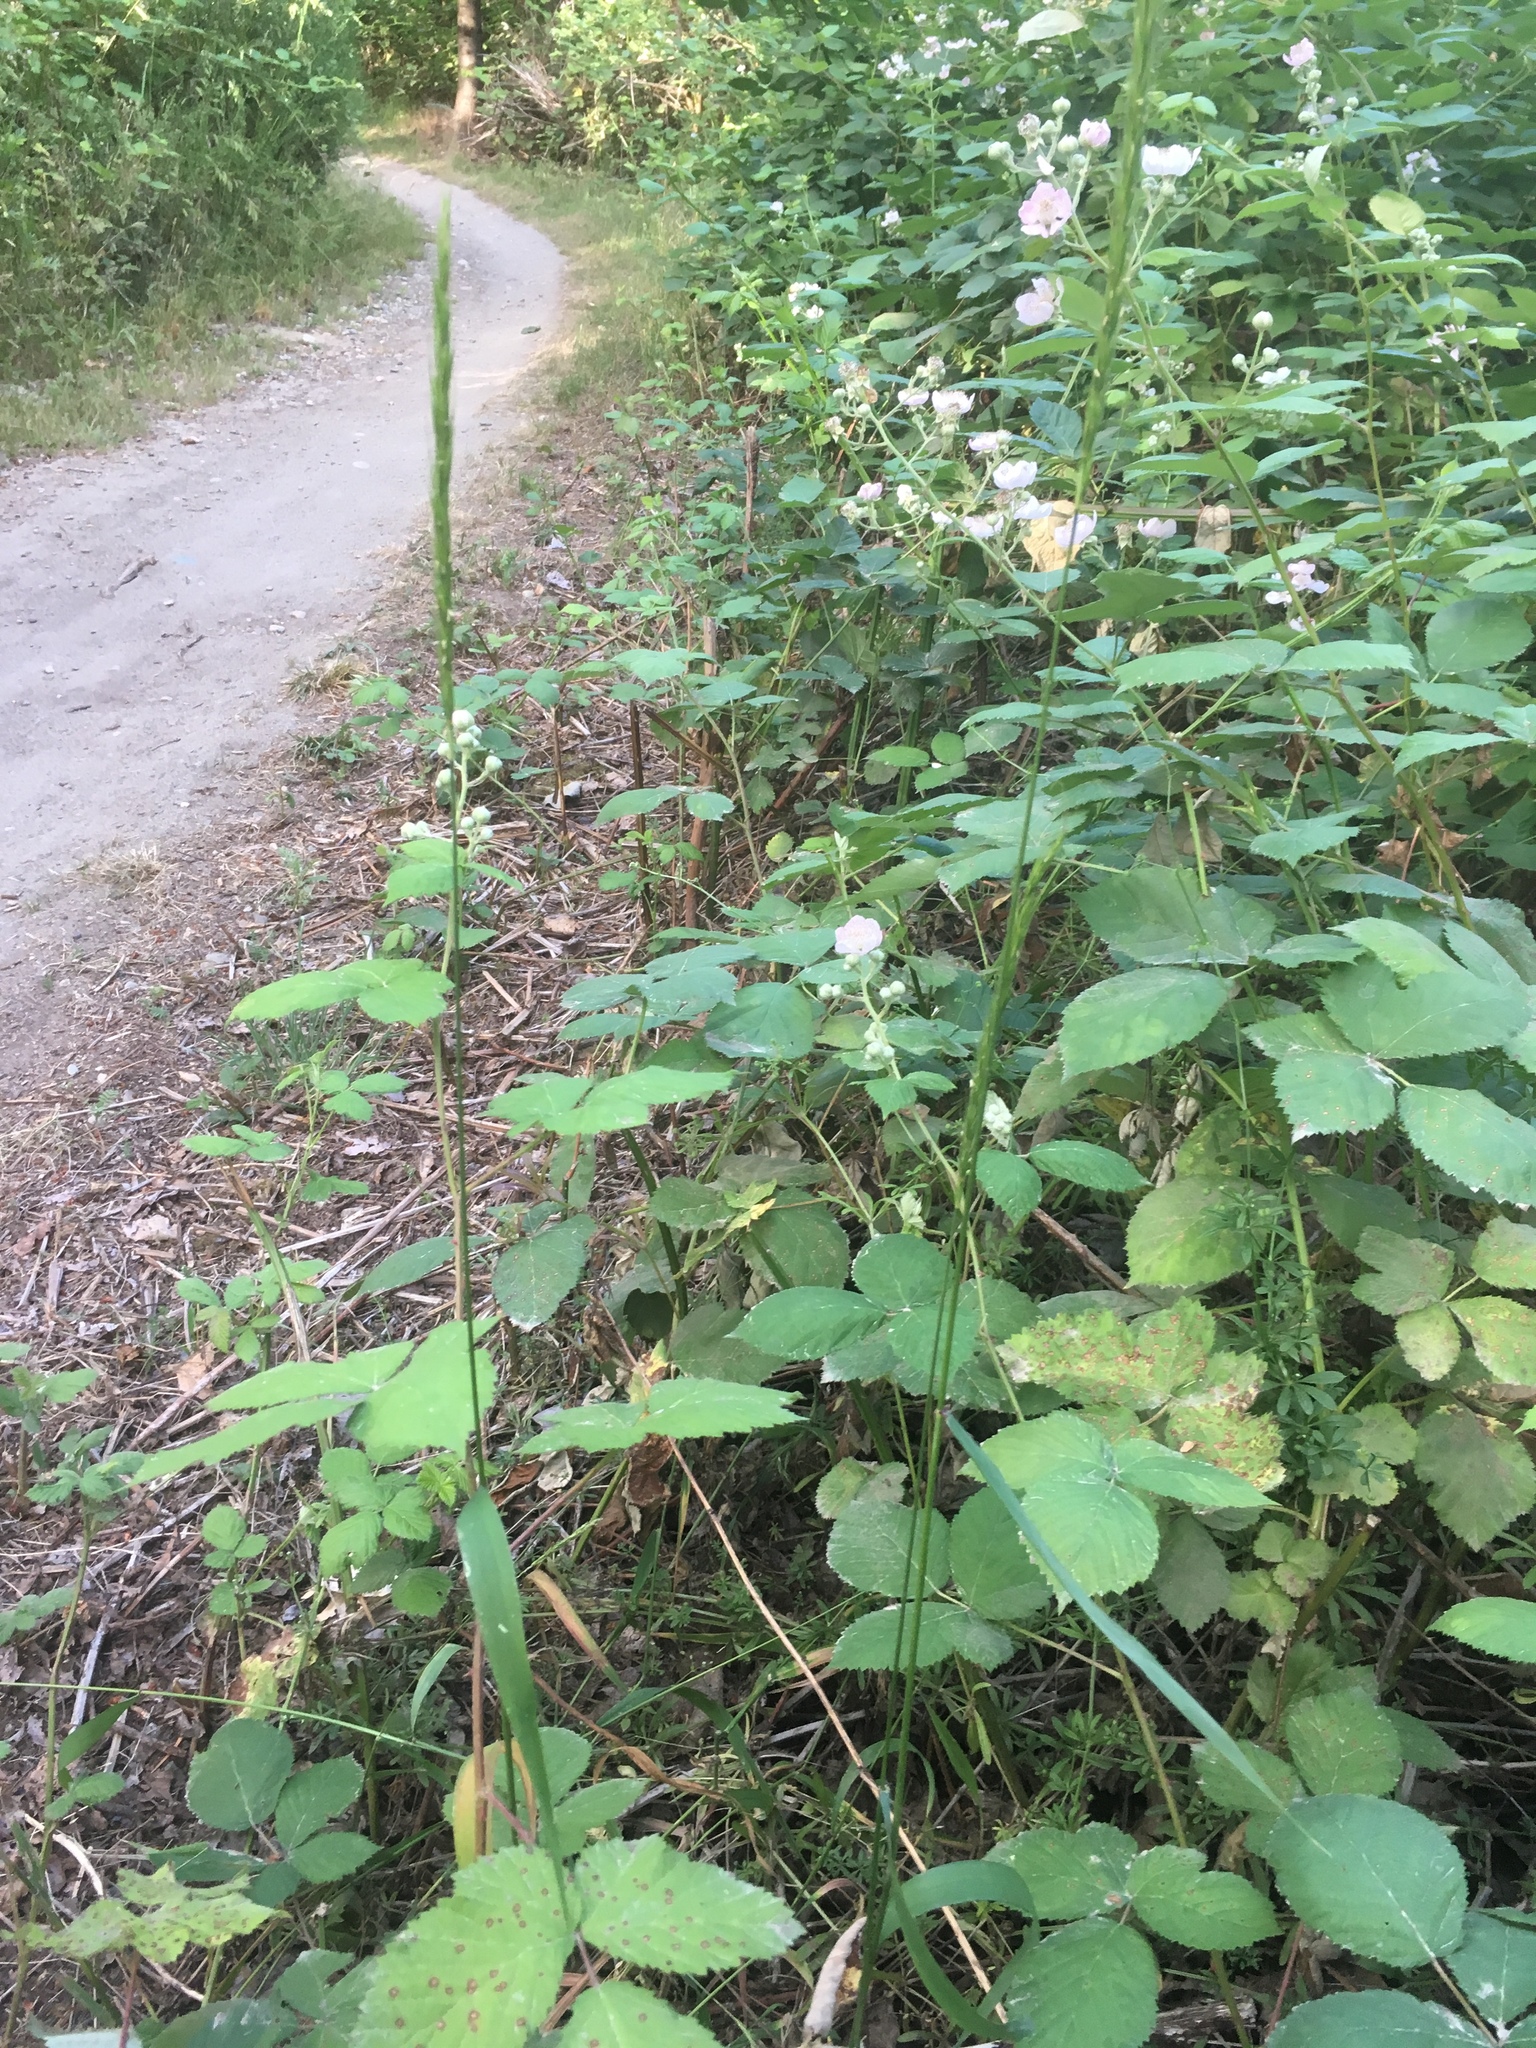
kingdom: Plantae
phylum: Tracheophyta
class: Liliopsida
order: Poales
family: Poaceae
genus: Elymus
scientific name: Elymus glaucus
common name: Blue wild rye
